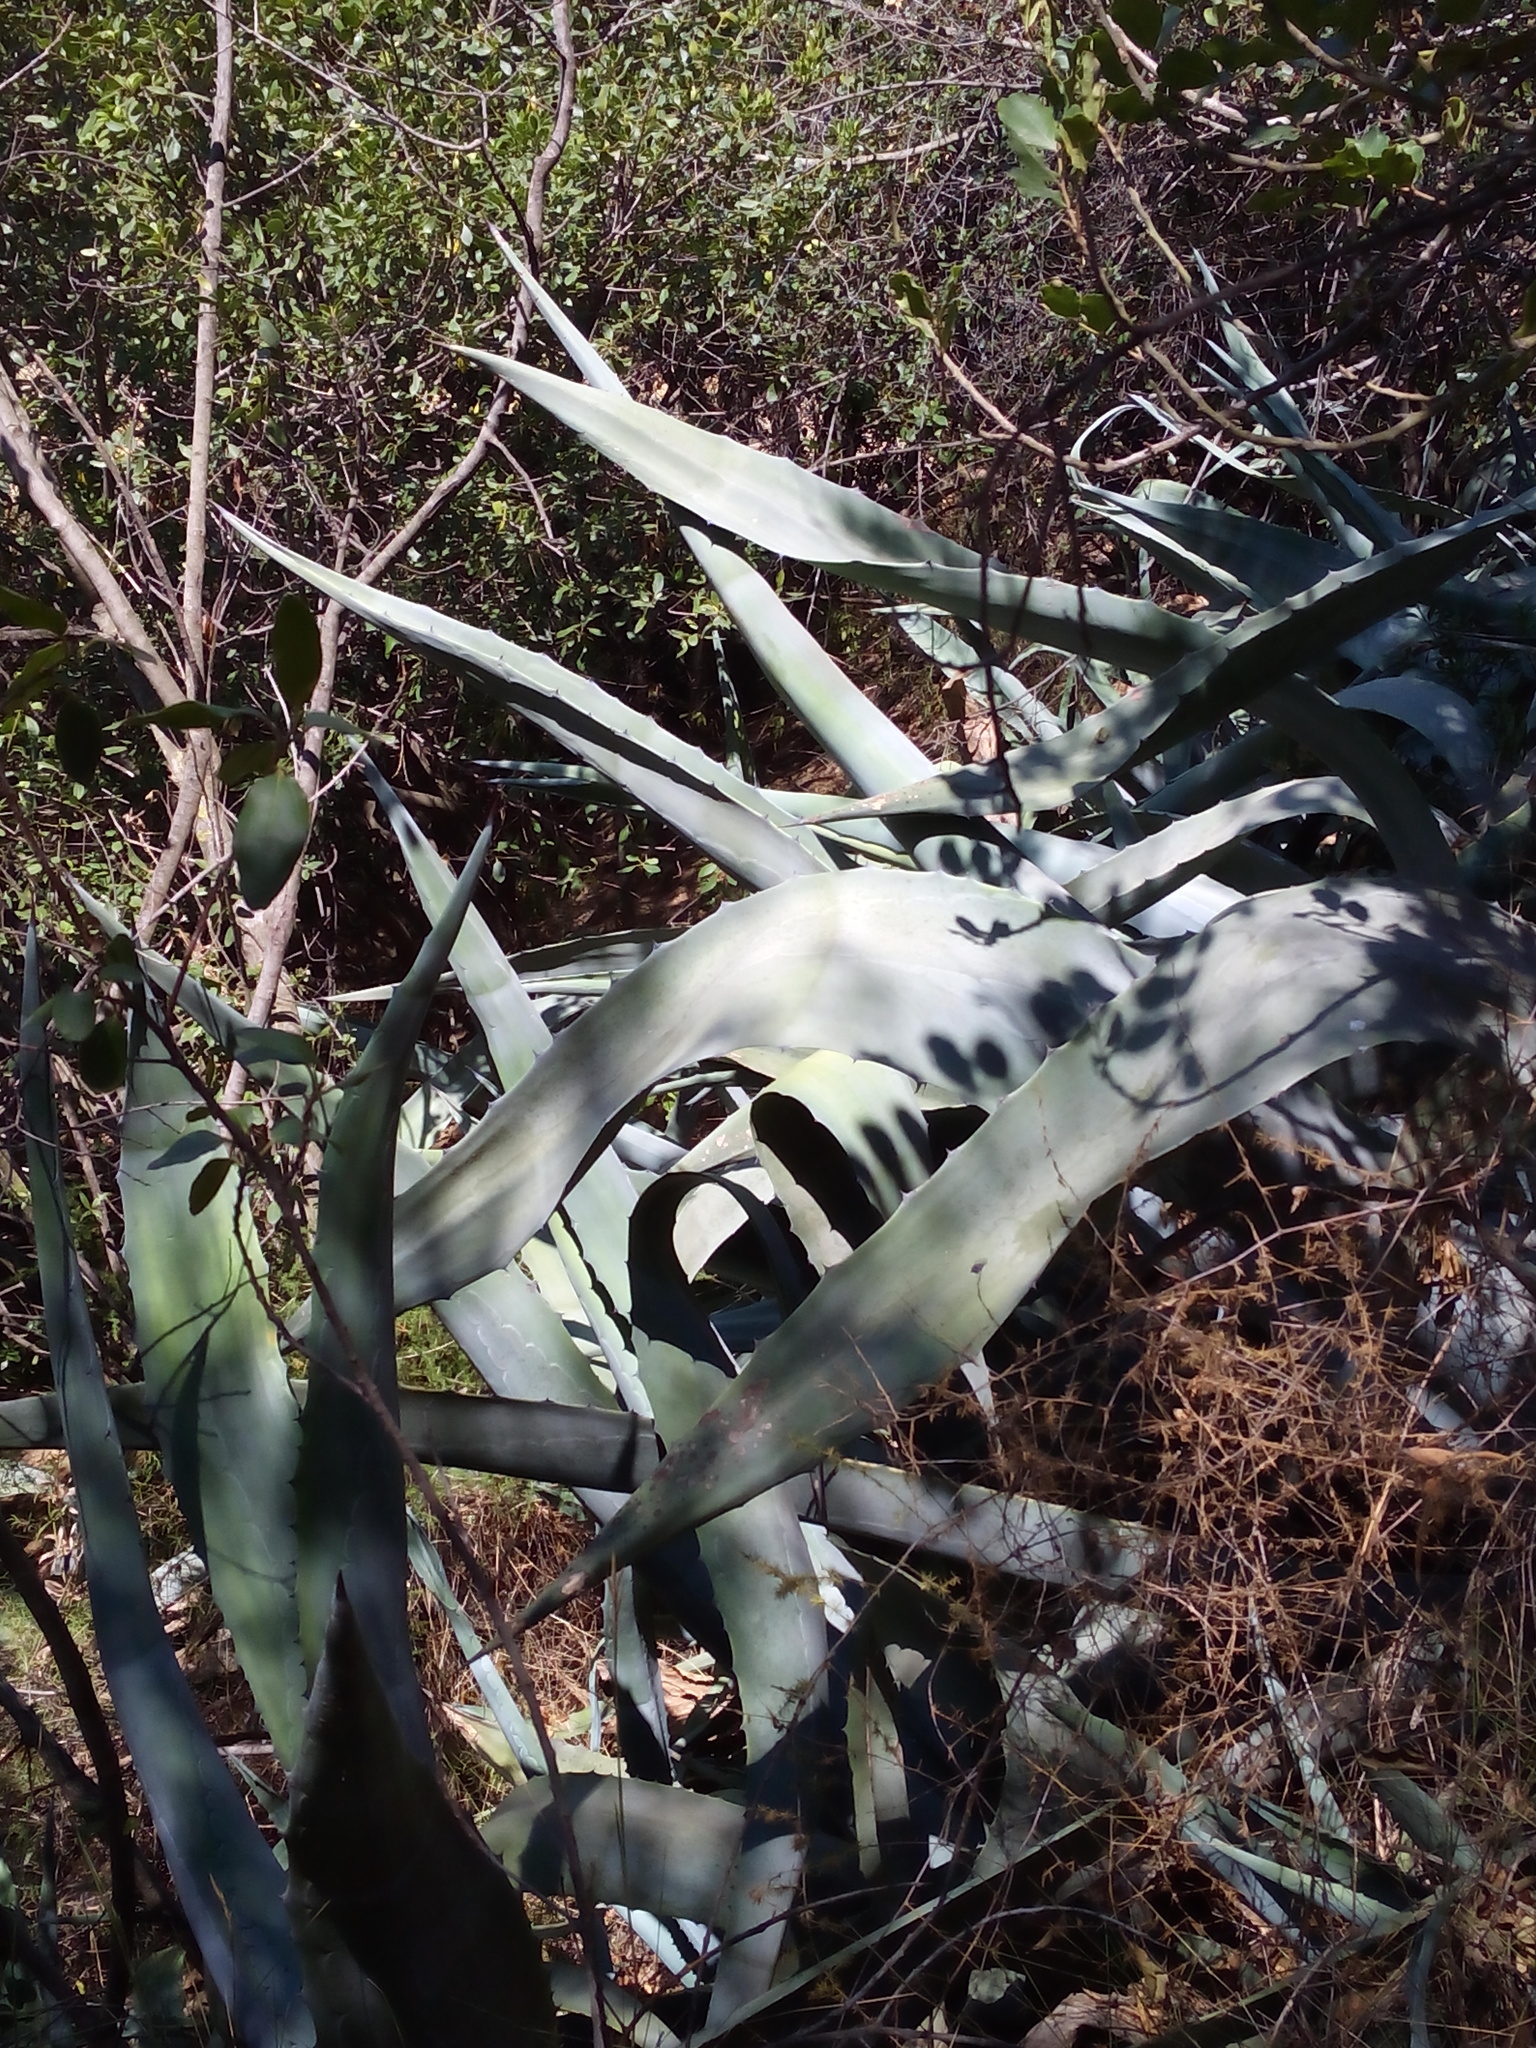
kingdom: Plantae
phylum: Tracheophyta
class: Liliopsida
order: Asparagales
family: Asparagaceae
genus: Agave
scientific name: Agave americana
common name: Centuryplant
